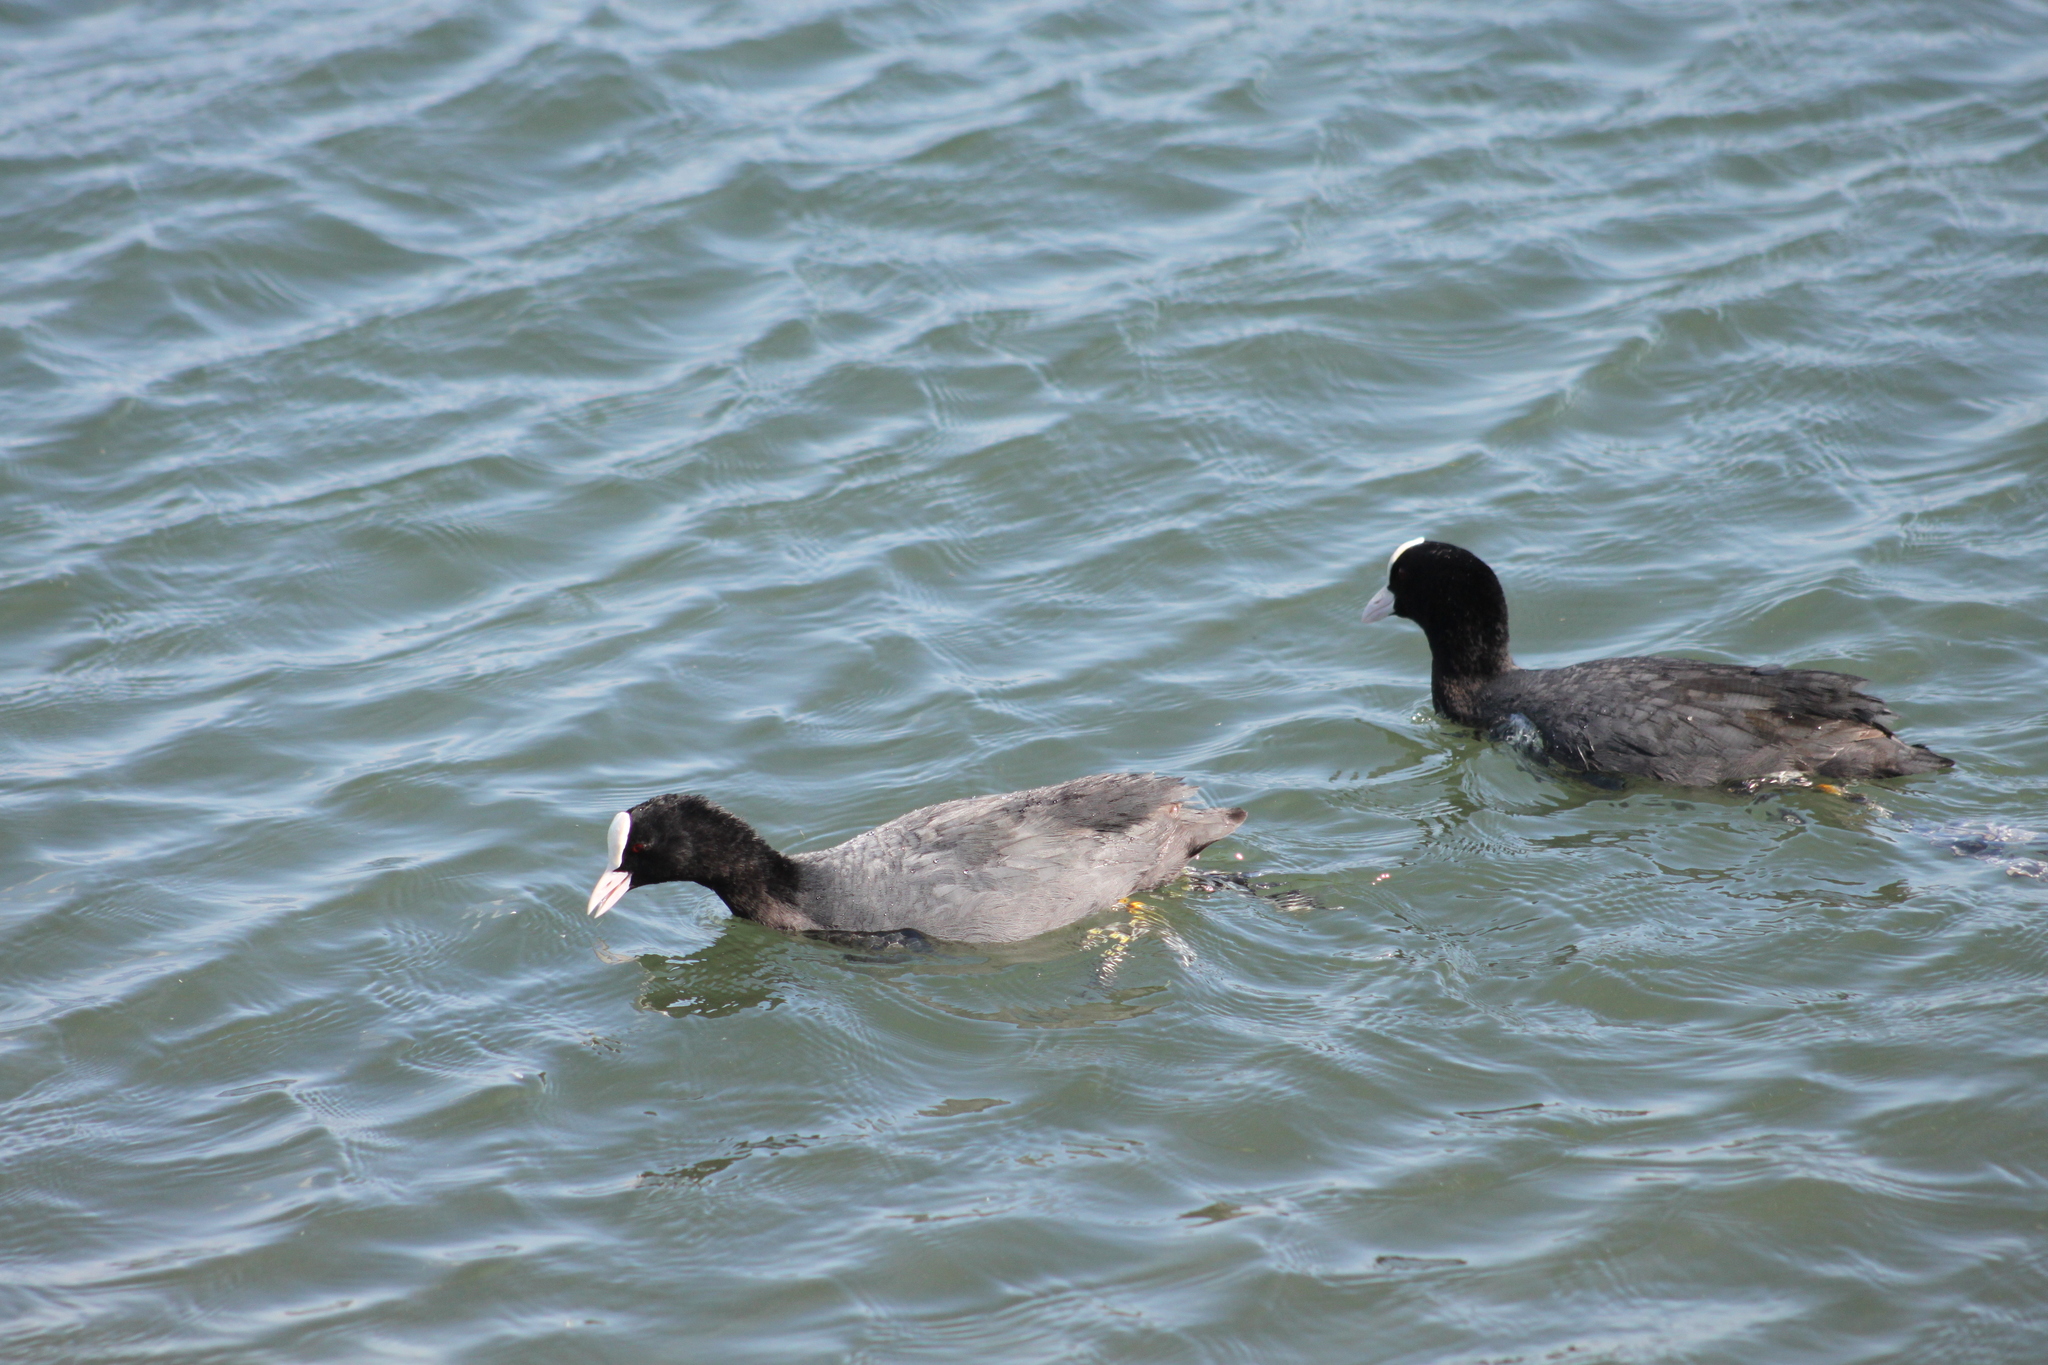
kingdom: Animalia
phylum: Chordata
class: Aves
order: Gruiformes
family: Rallidae
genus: Fulica
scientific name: Fulica atra
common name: Eurasian coot
